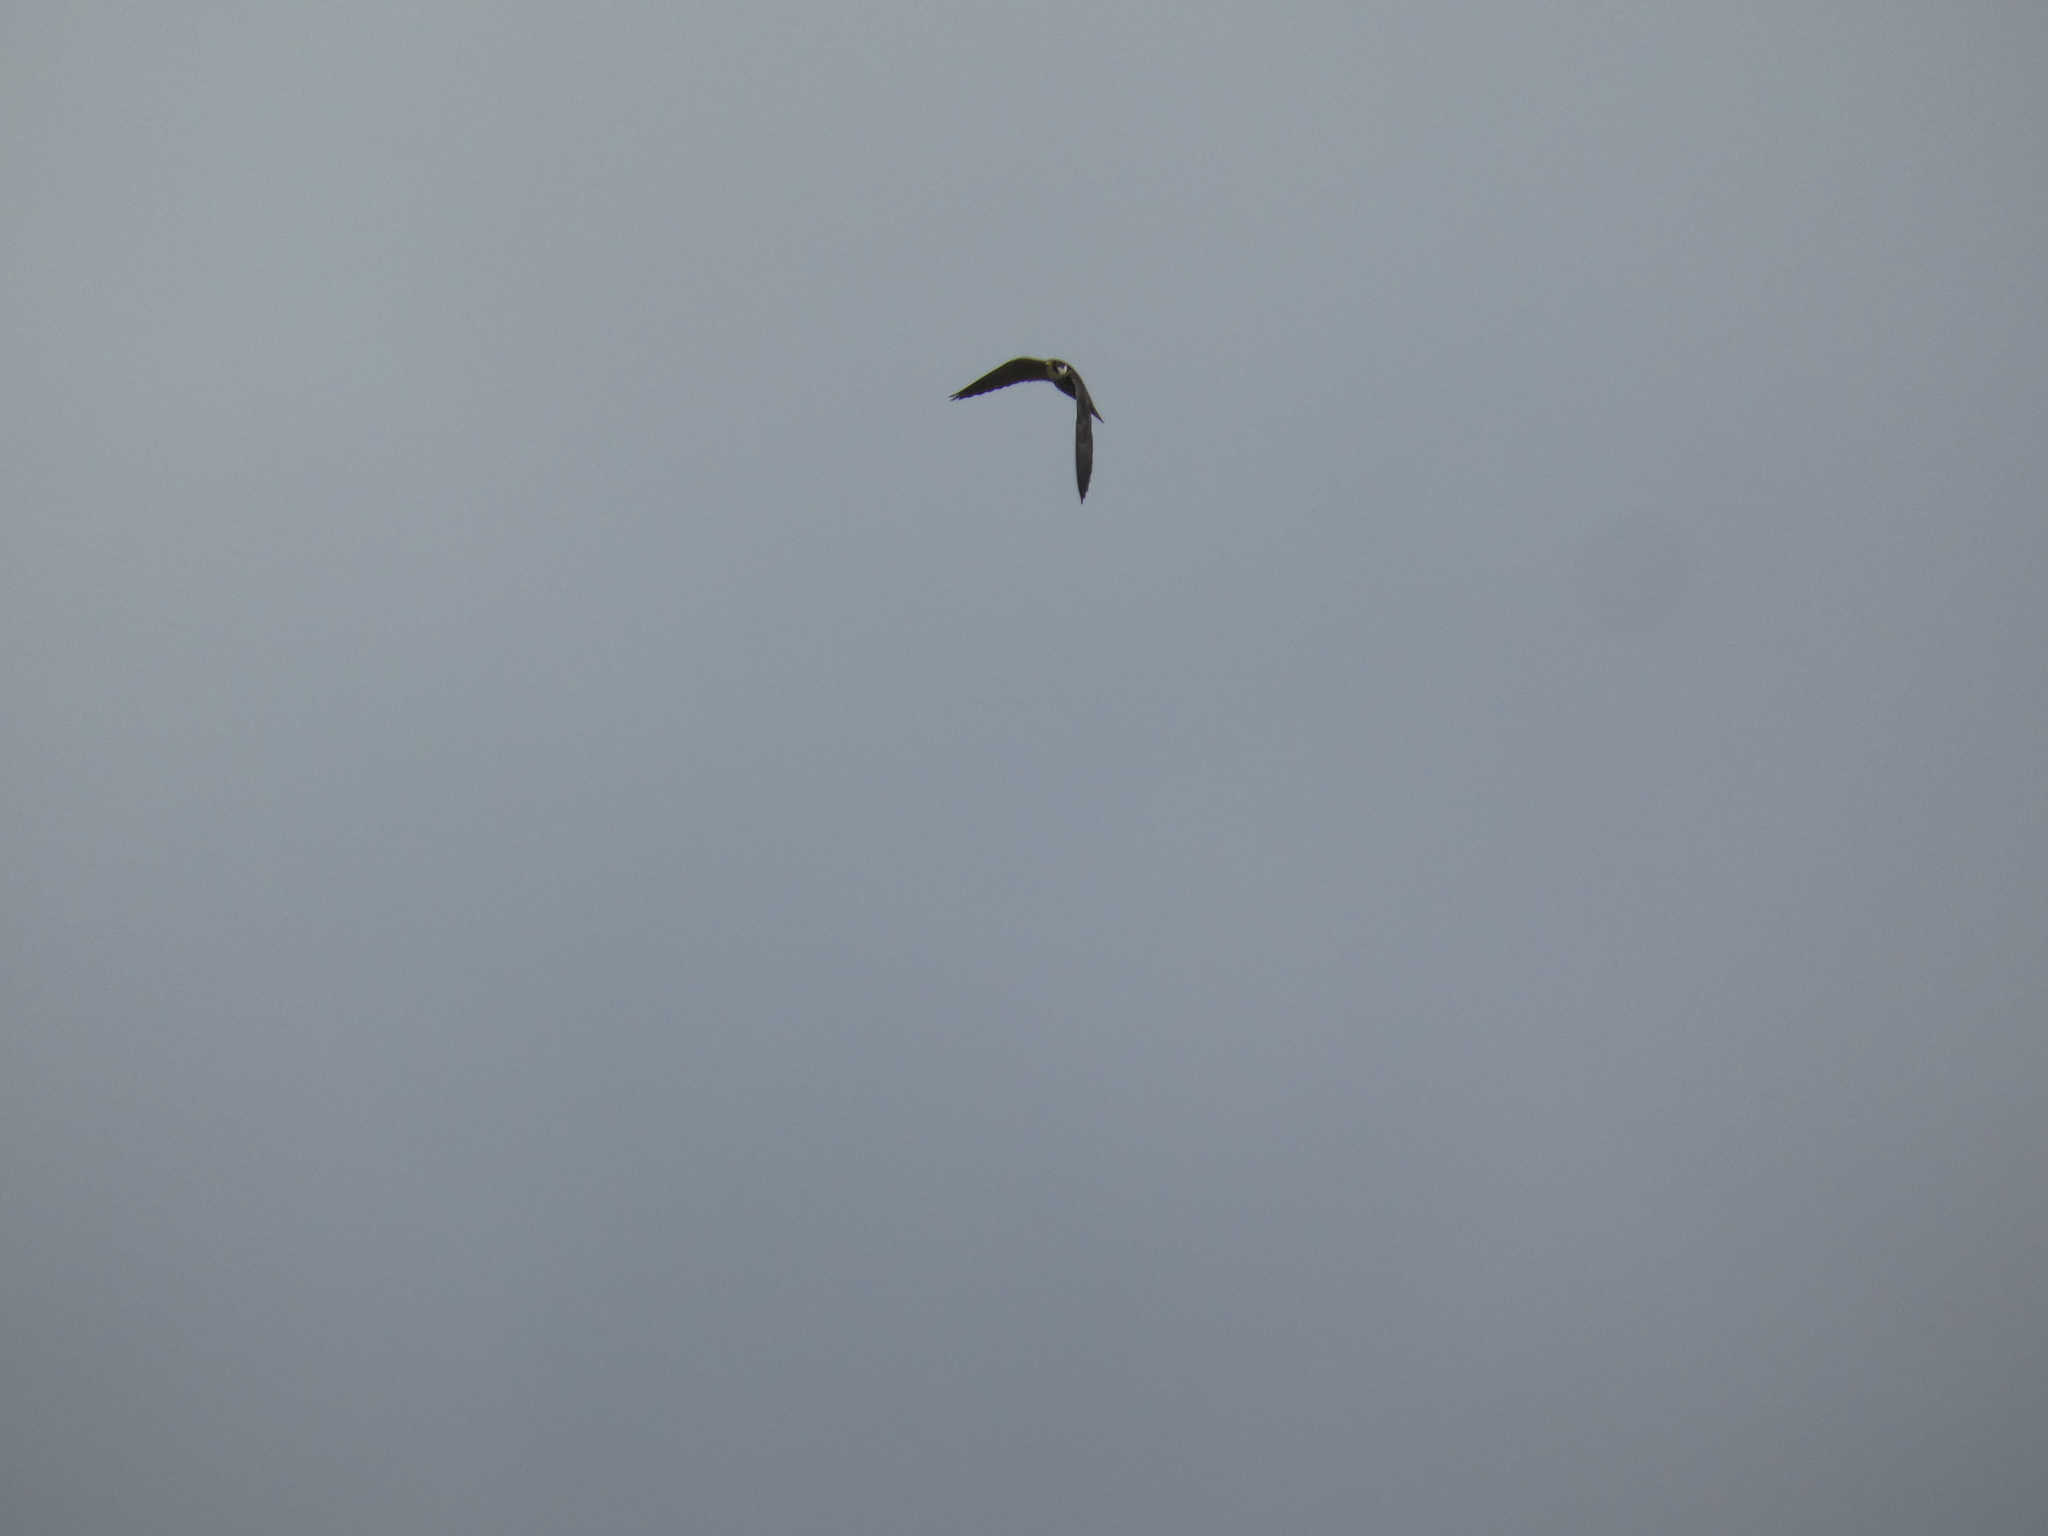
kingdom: Animalia
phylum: Chordata
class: Aves
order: Falconiformes
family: Falconidae
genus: Falco
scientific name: Falco subbuteo
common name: Eurasian hobby
